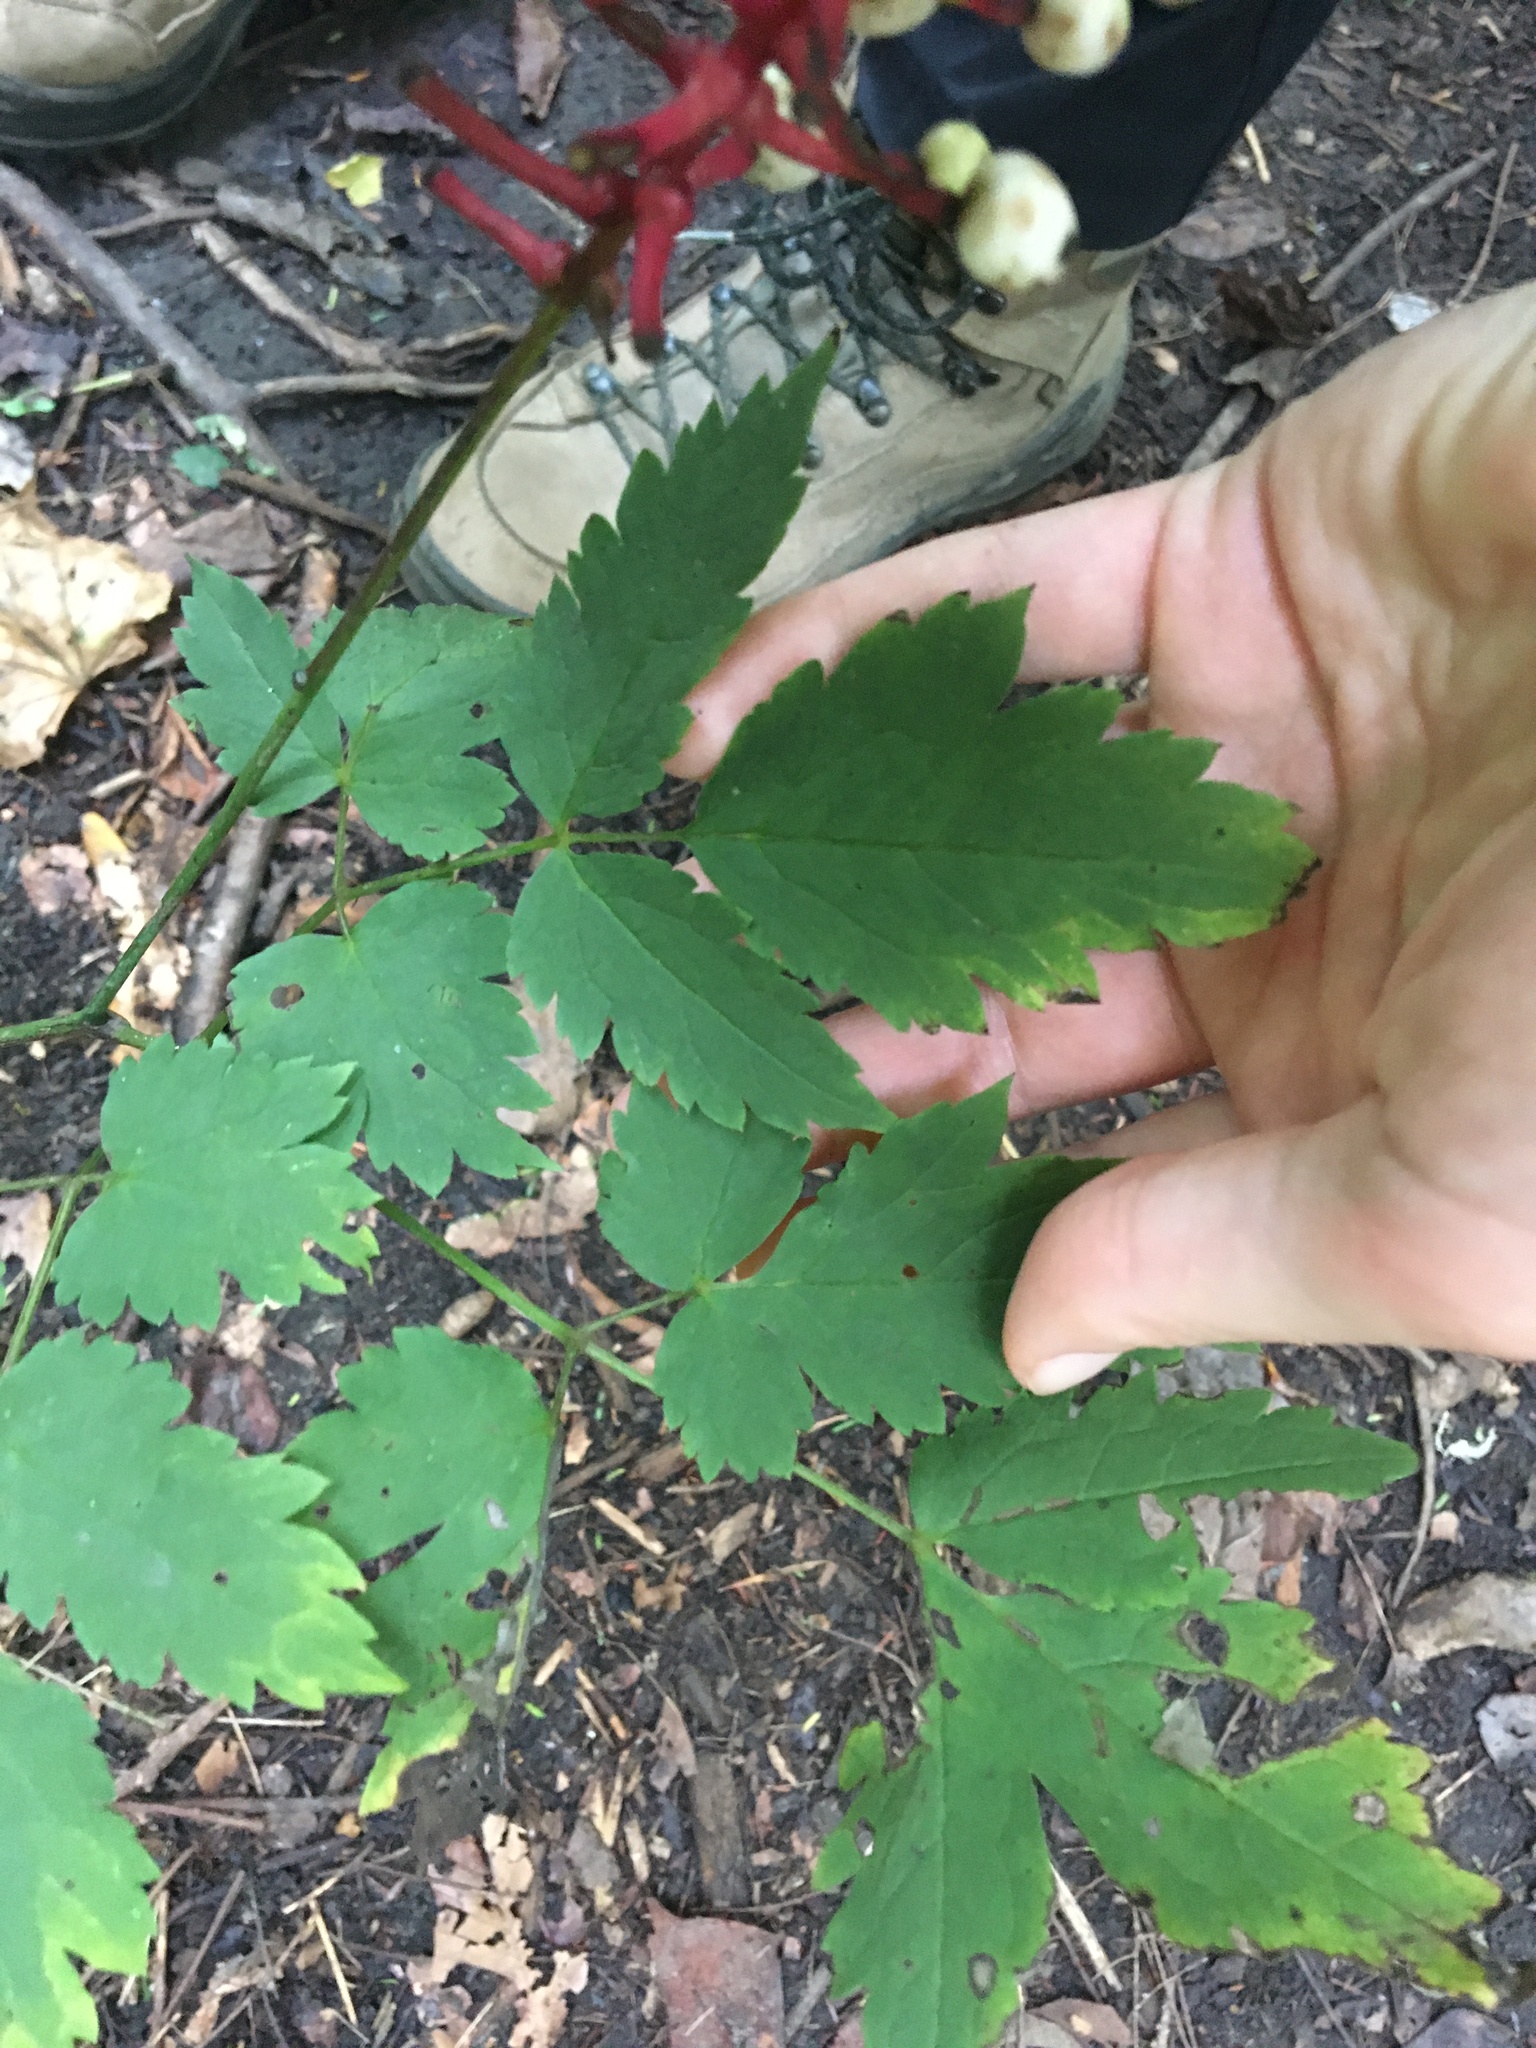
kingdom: Plantae
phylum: Tracheophyta
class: Magnoliopsida
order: Ranunculales
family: Ranunculaceae
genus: Actaea
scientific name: Actaea pachypoda
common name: Doll's-eyes
